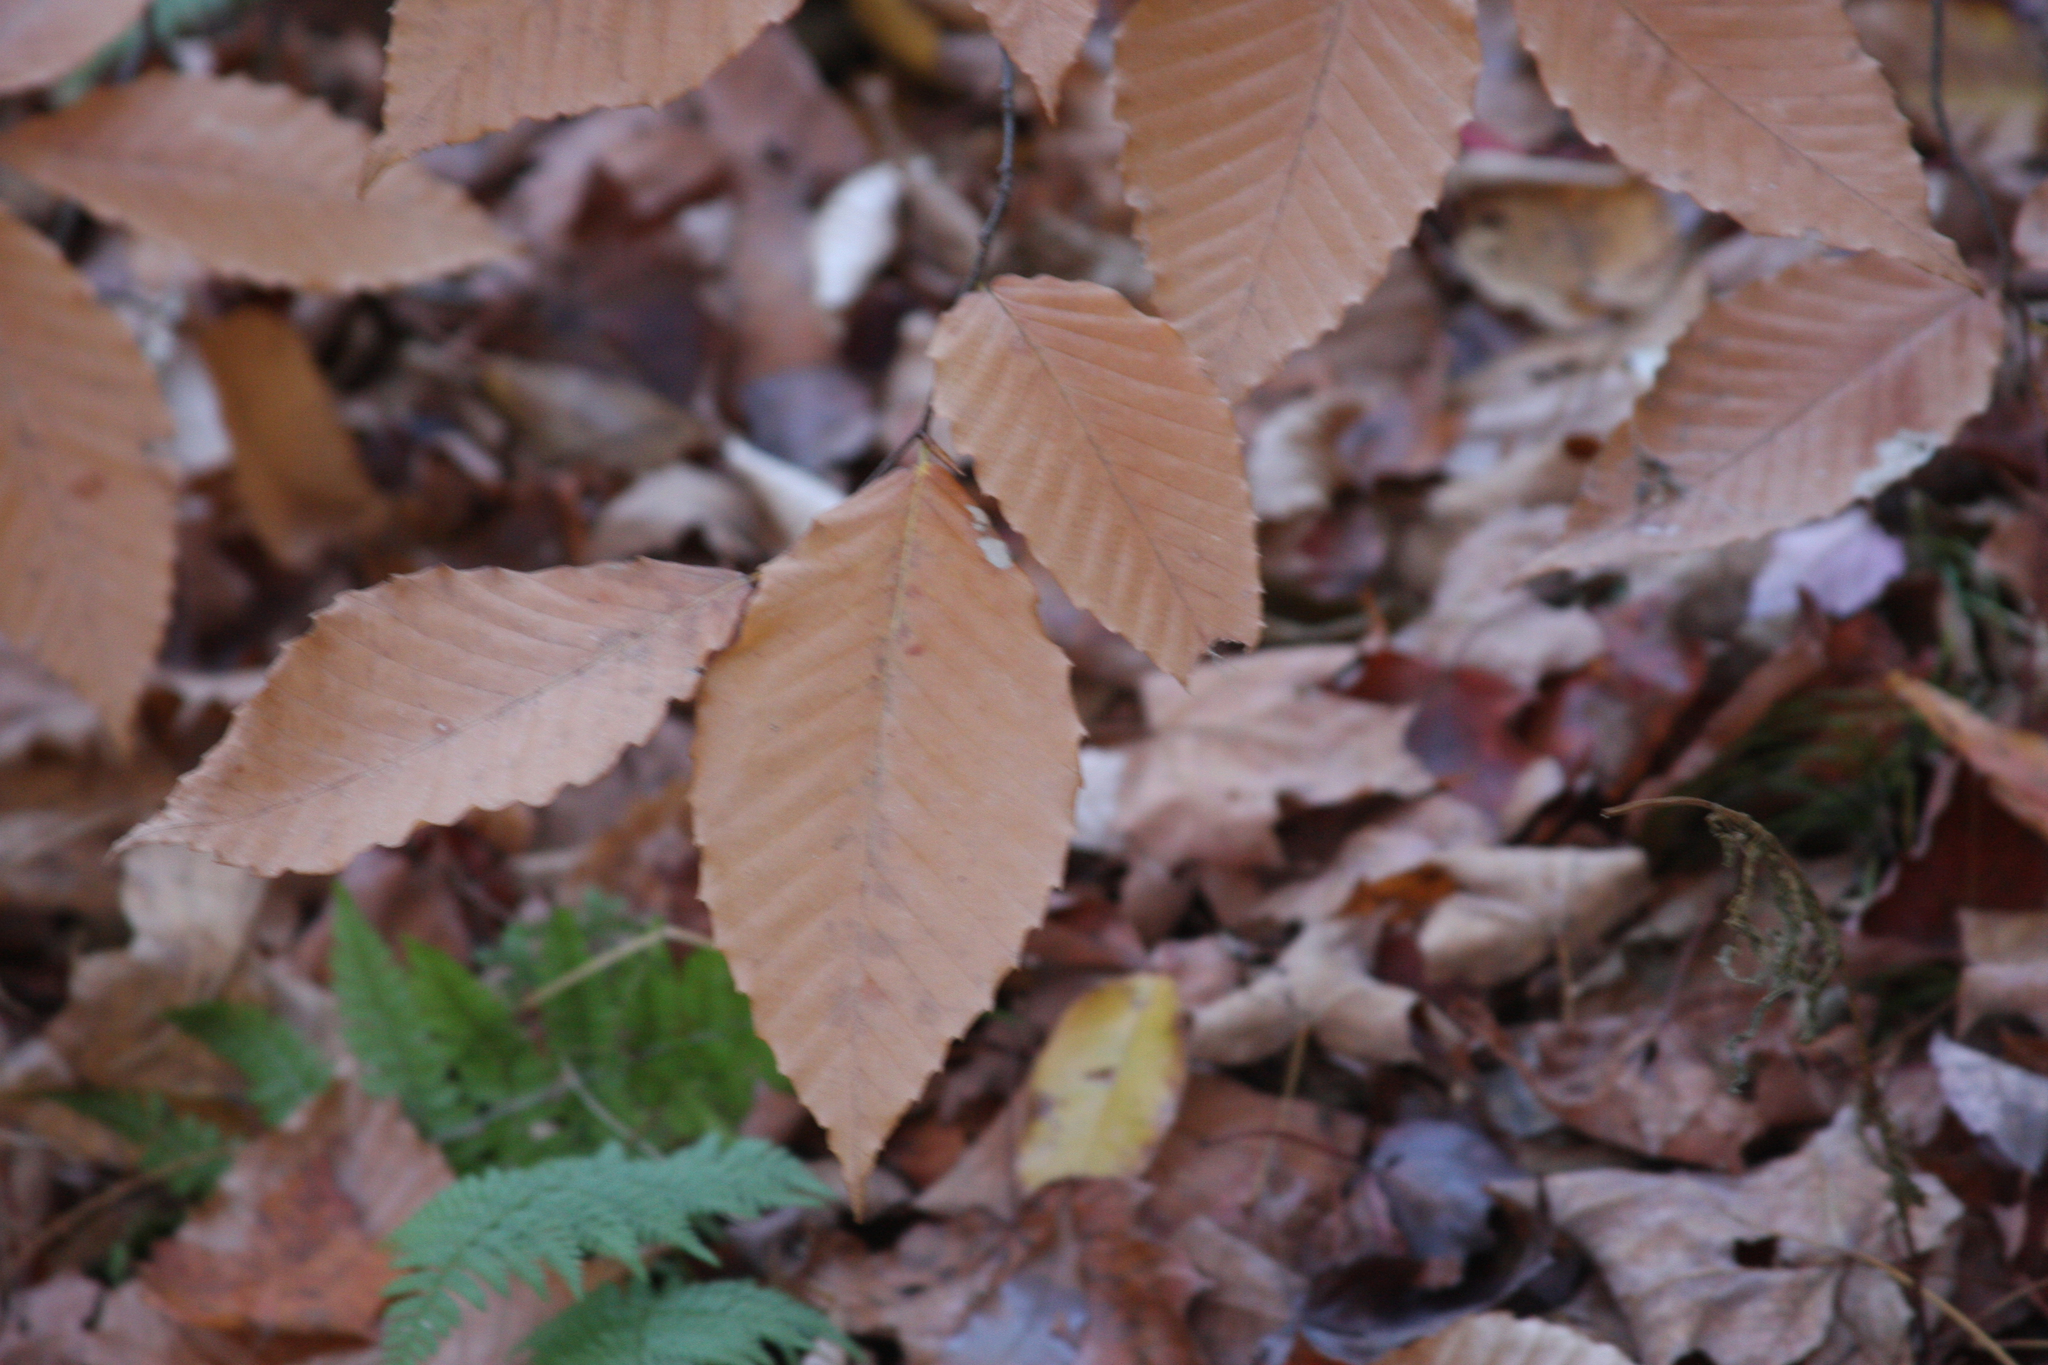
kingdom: Plantae
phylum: Tracheophyta
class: Magnoliopsida
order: Fagales
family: Fagaceae
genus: Fagus
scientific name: Fagus grandifolia
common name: American beech
